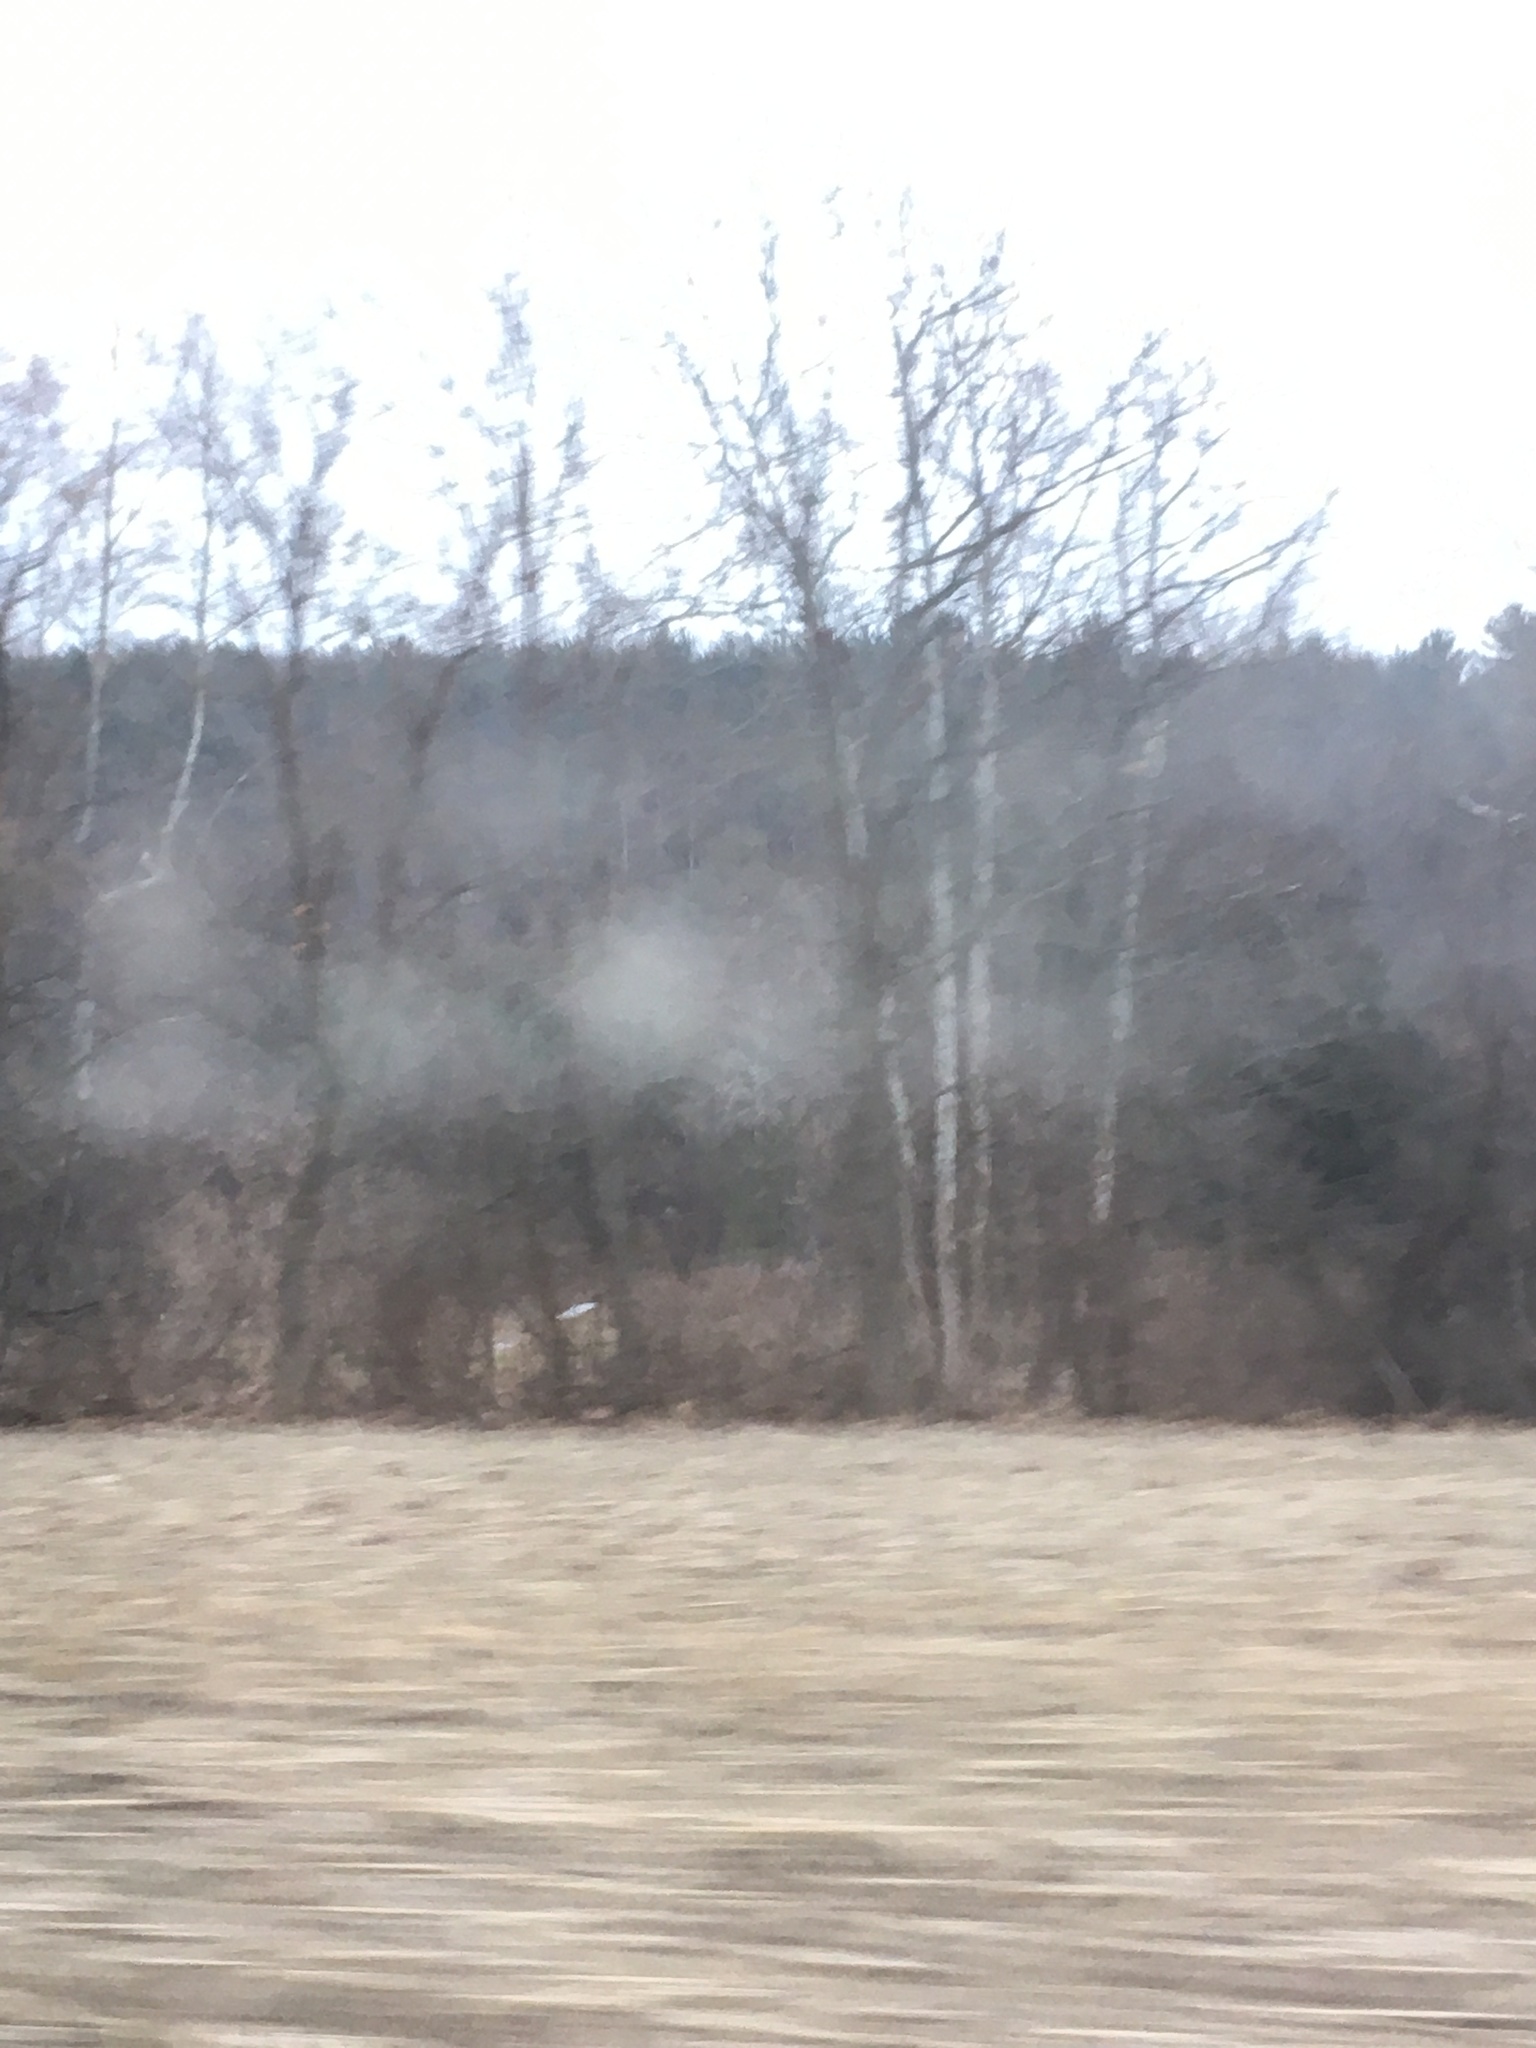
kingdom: Plantae
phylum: Tracheophyta
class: Magnoliopsida
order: Proteales
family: Platanaceae
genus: Platanus
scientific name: Platanus occidentalis
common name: American sycamore
